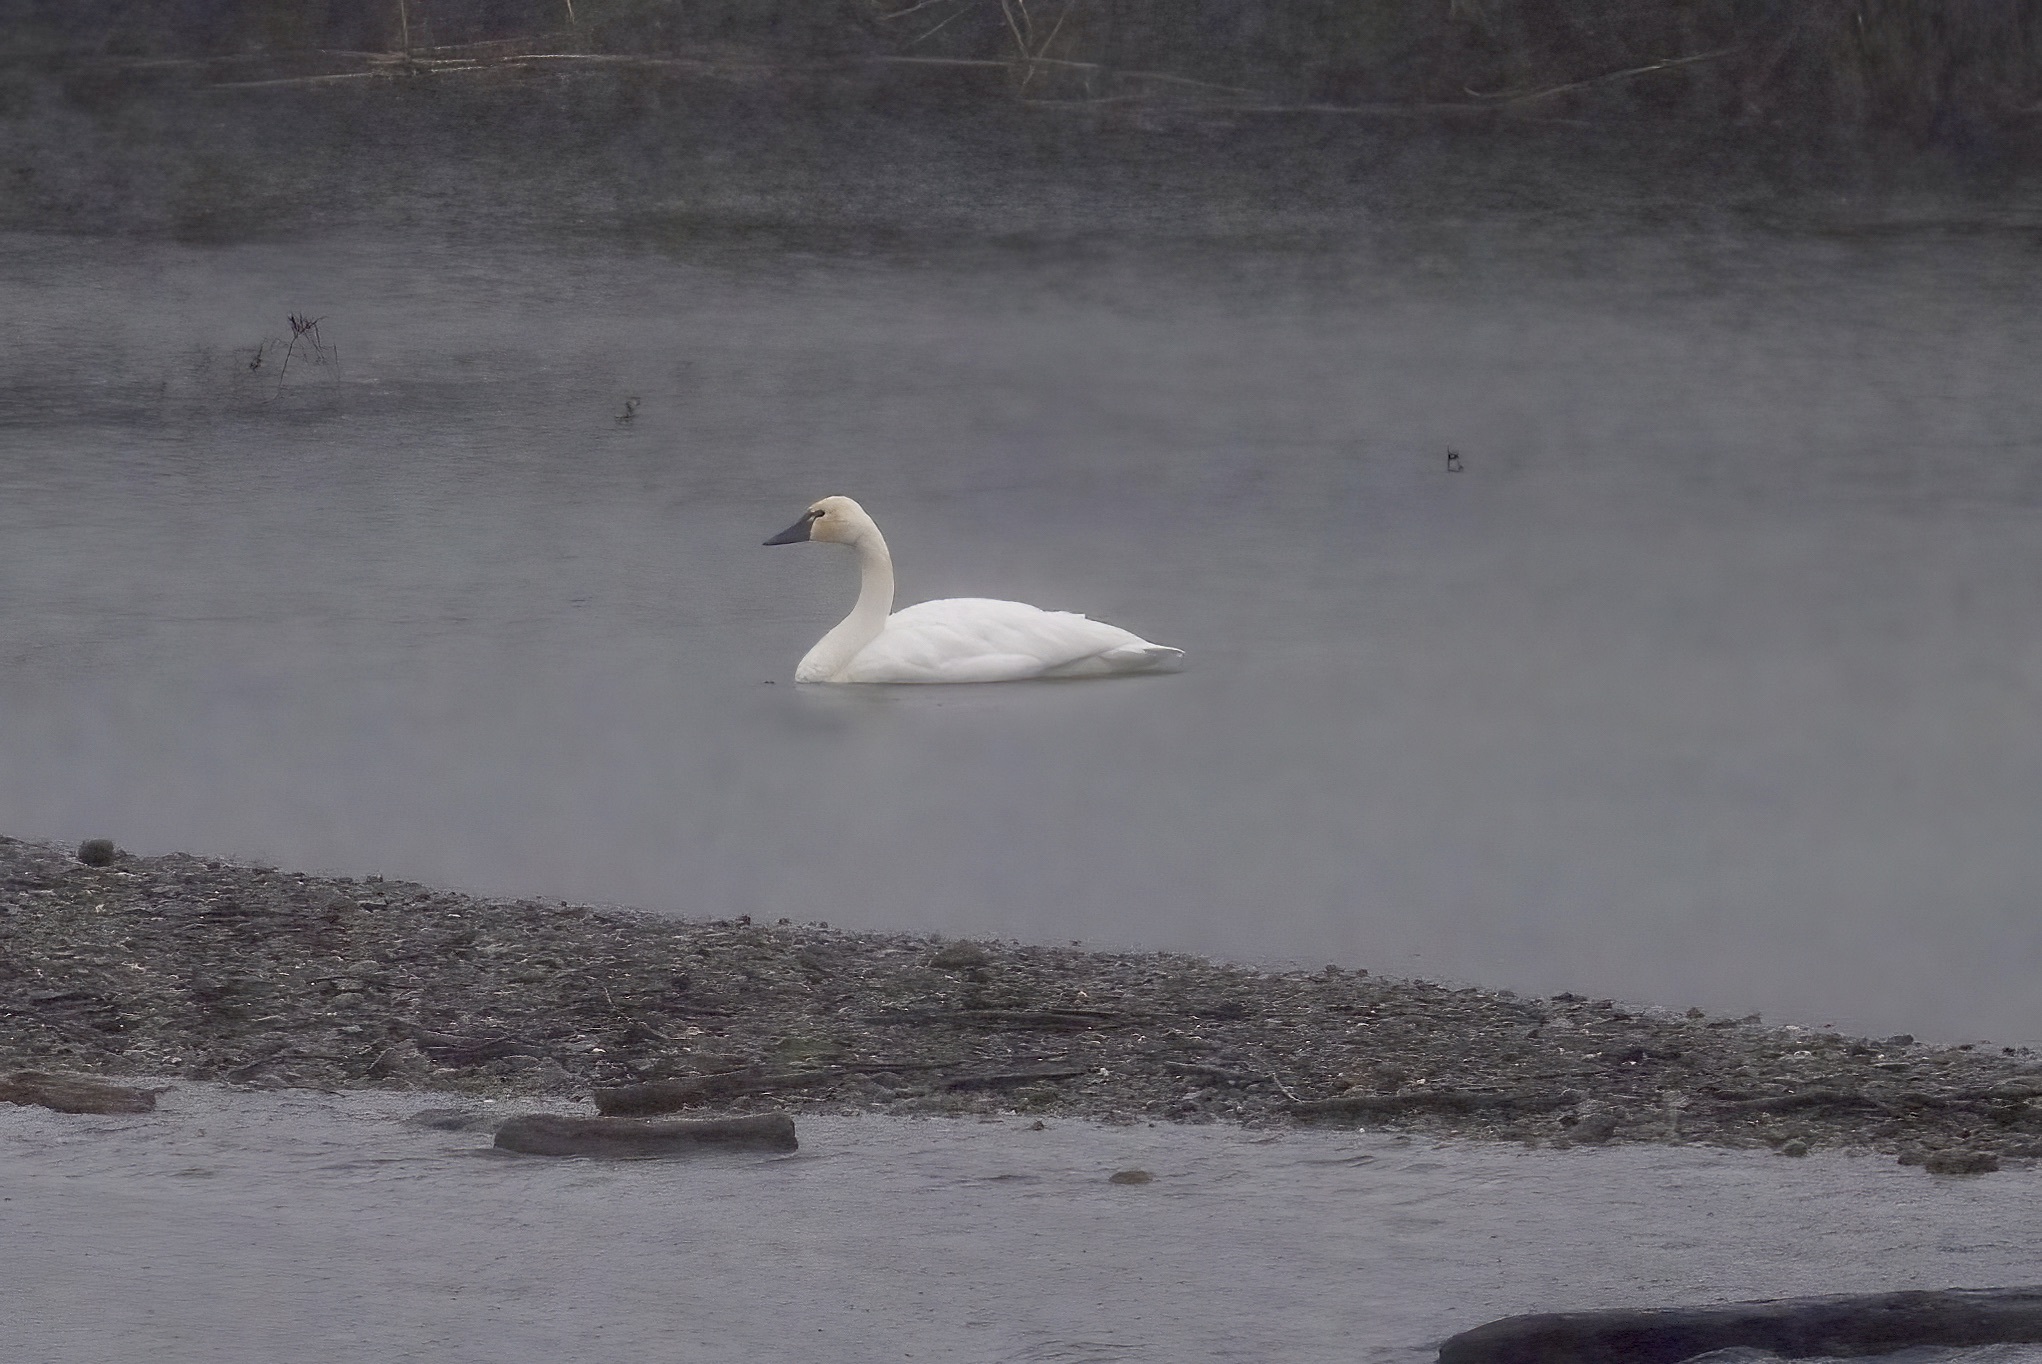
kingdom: Animalia
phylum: Chordata
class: Aves
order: Anseriformes
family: Anatidae
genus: Cygnus
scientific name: Cygnus columbianus
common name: Tundra swan
